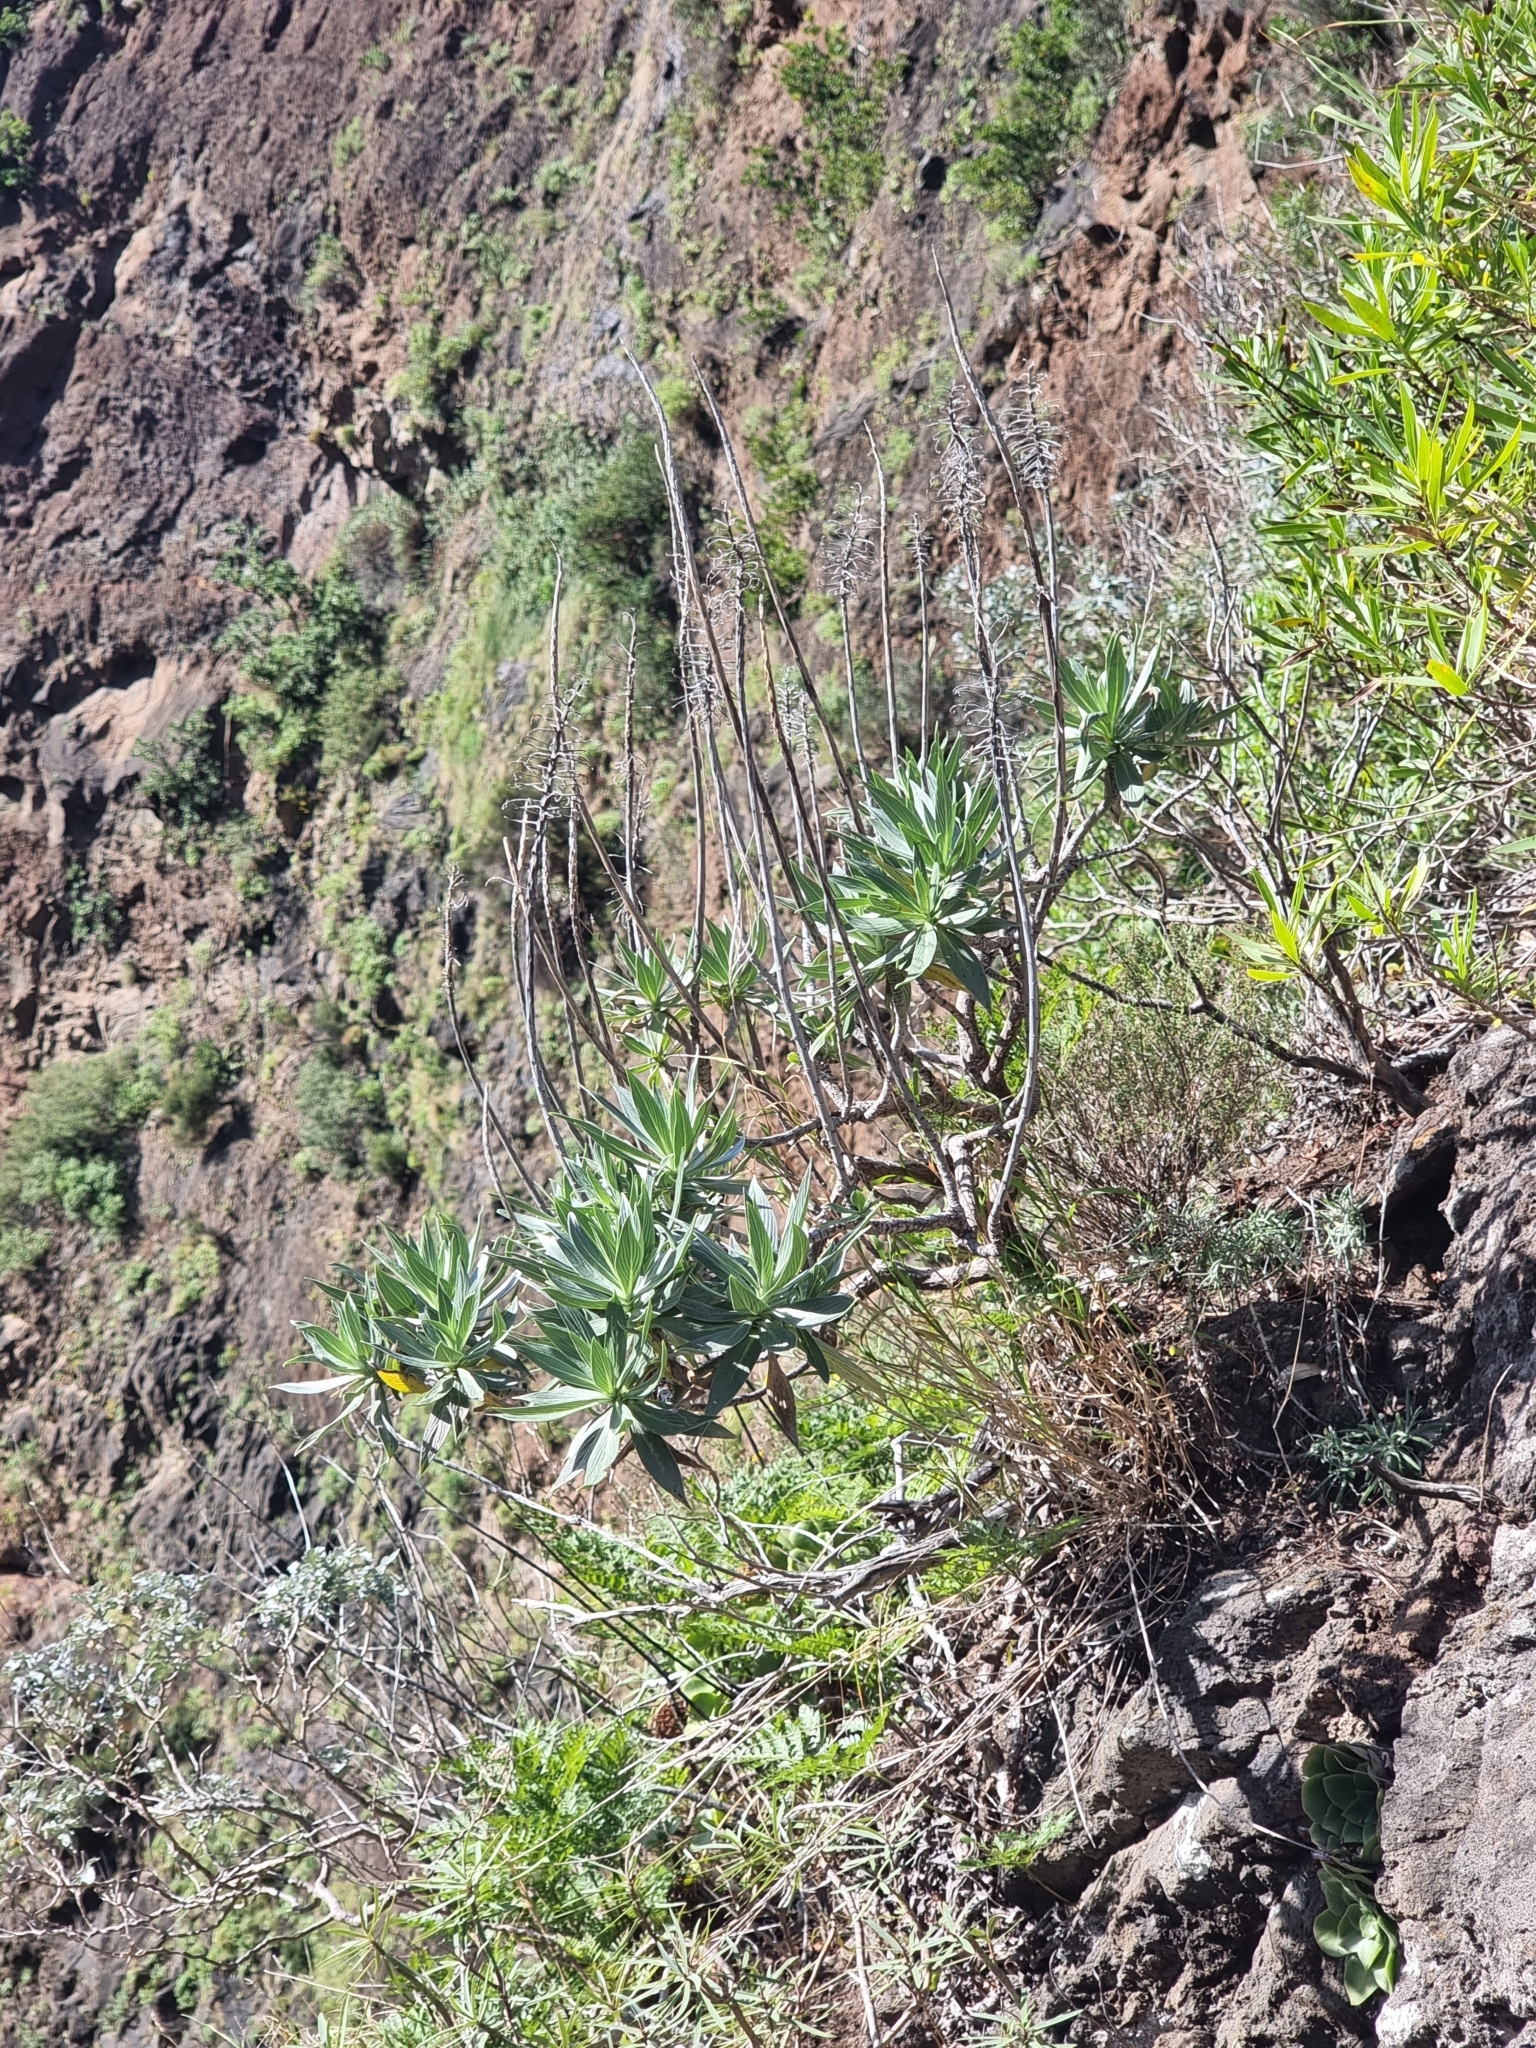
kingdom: Plantae
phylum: Tracheophyta
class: Magnoliopsida
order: Boraginales
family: Boraginaceae
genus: Echium
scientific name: Echium nervosum
